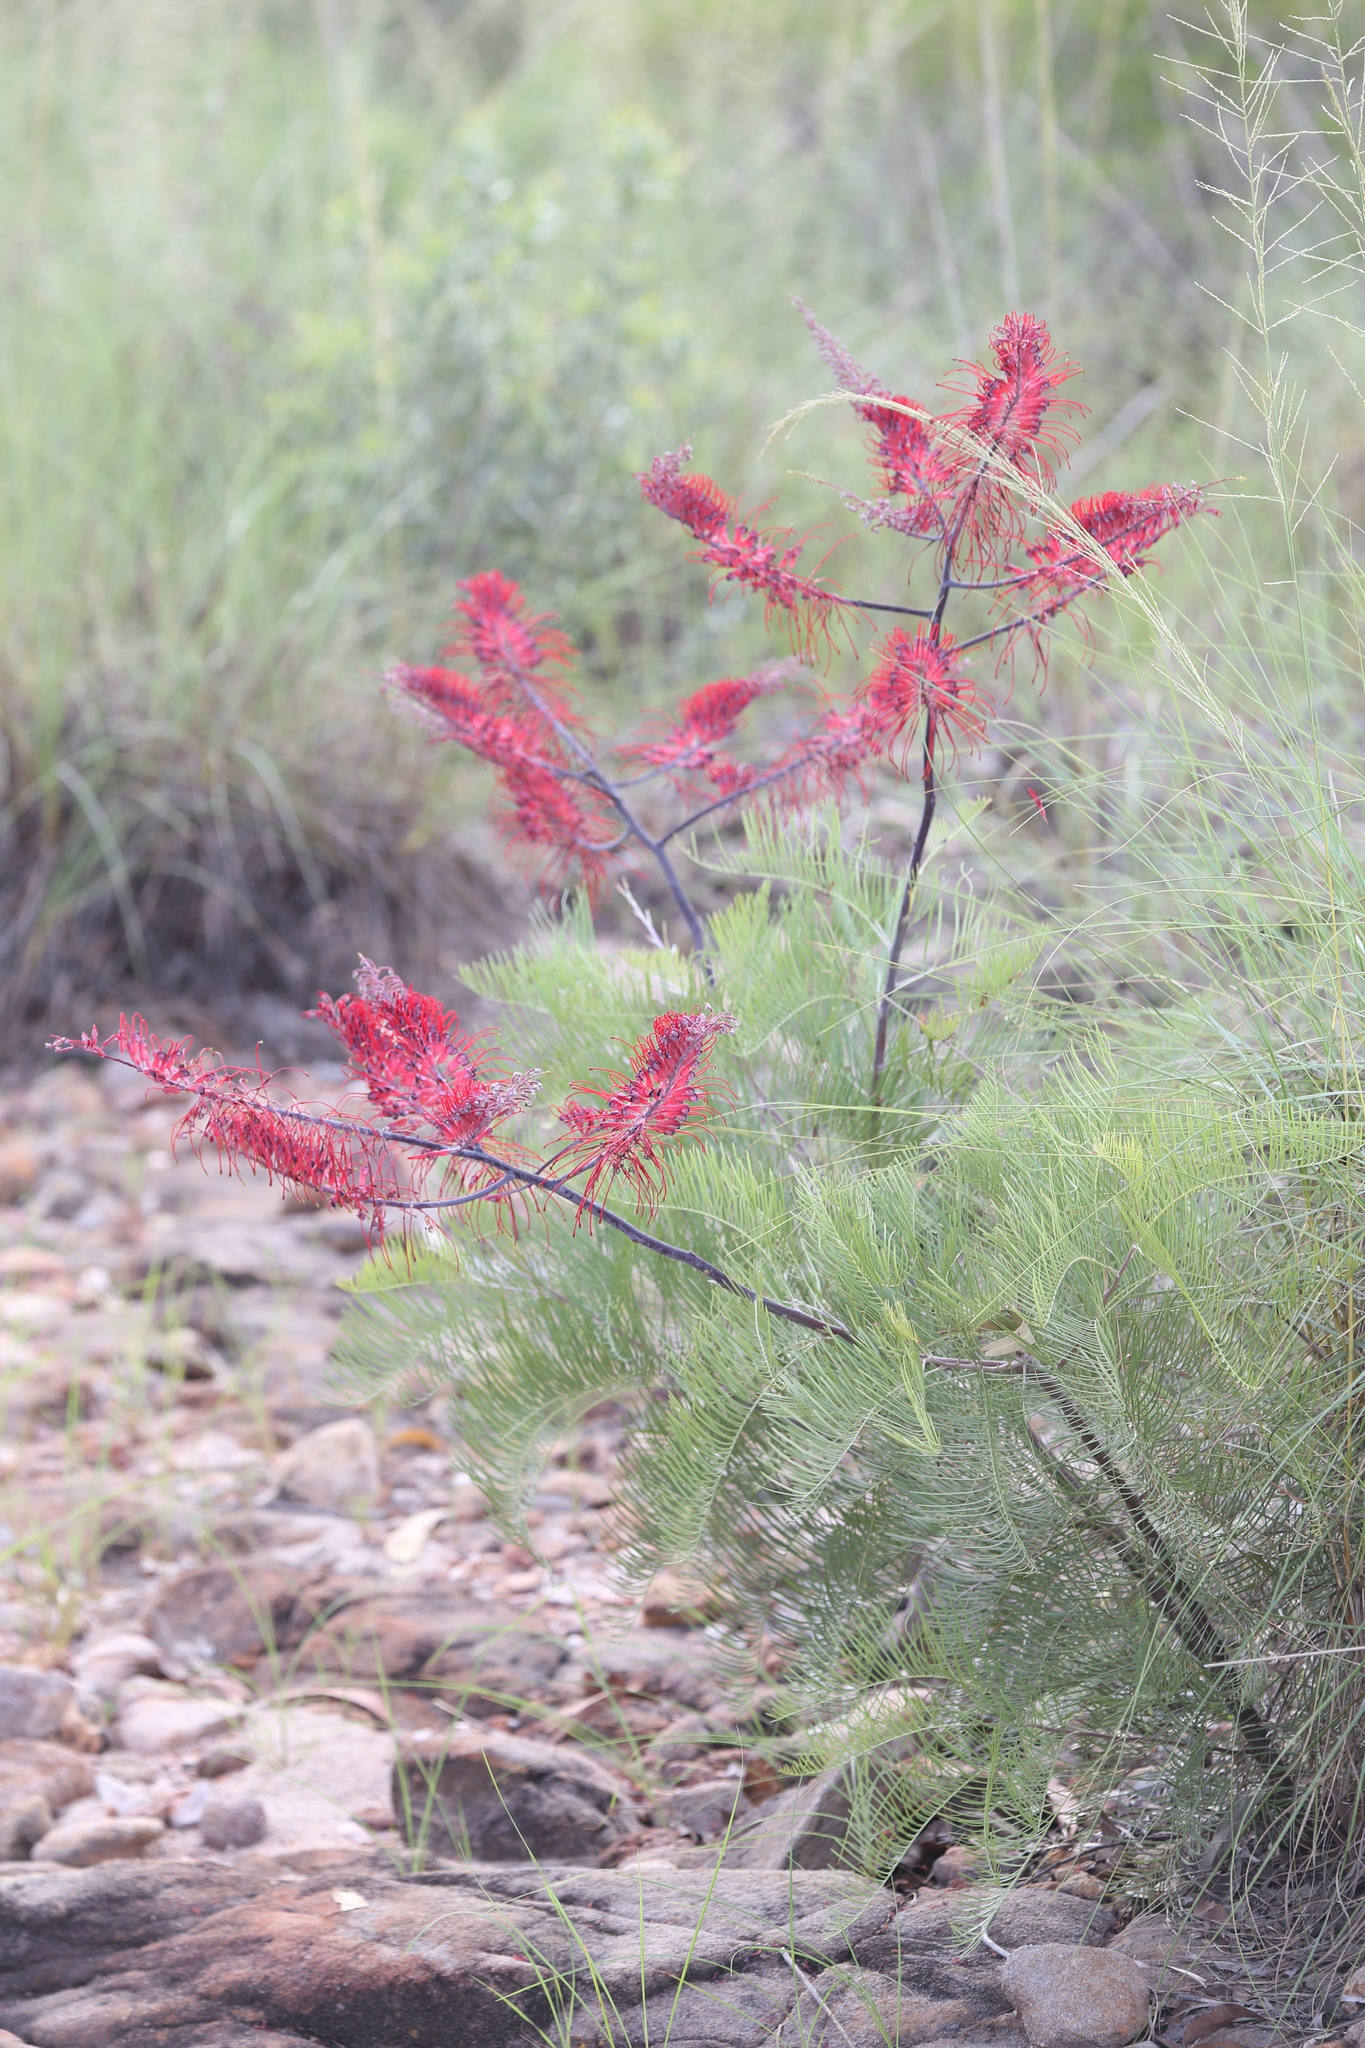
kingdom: Plantae
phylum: Tracheophyta
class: Magnoliopsida
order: Proteales
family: Proteaceae
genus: Grevillea
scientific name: Grevillea dryandri
